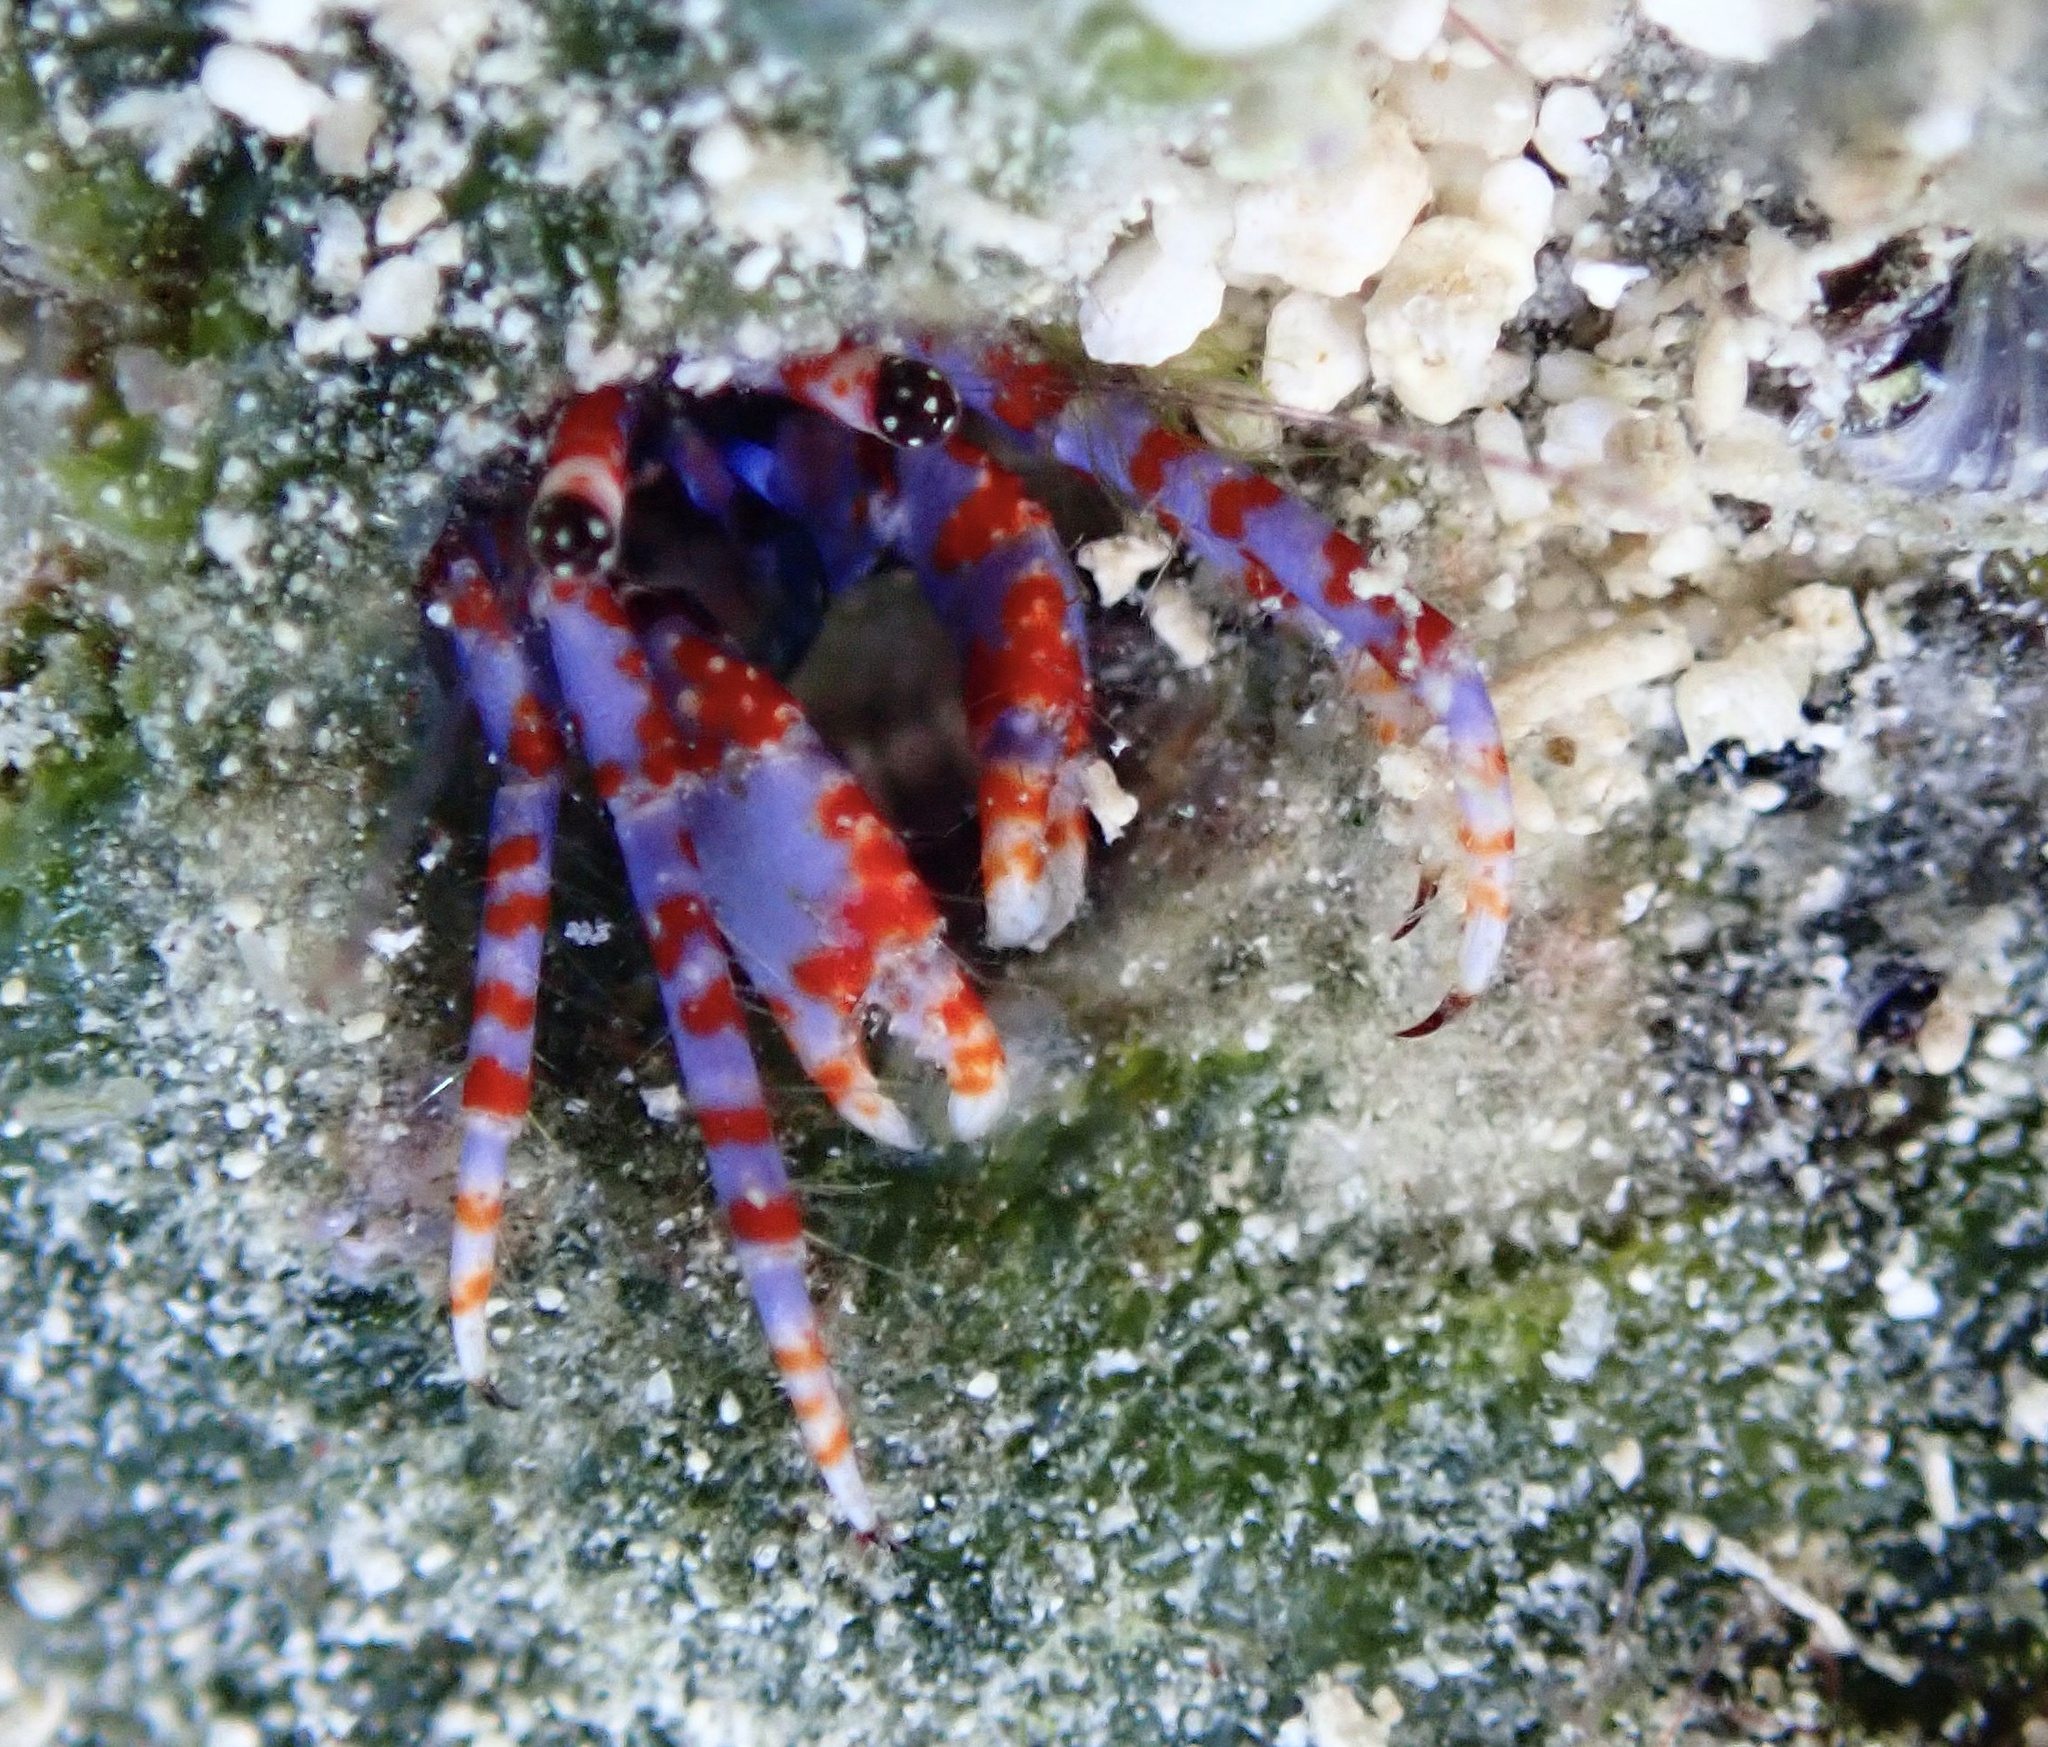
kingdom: Animalia
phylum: Arthropoda
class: Malacostraca
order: Decapoda
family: Diogenidae
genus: Calcinus
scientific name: Calcinus verrillii
